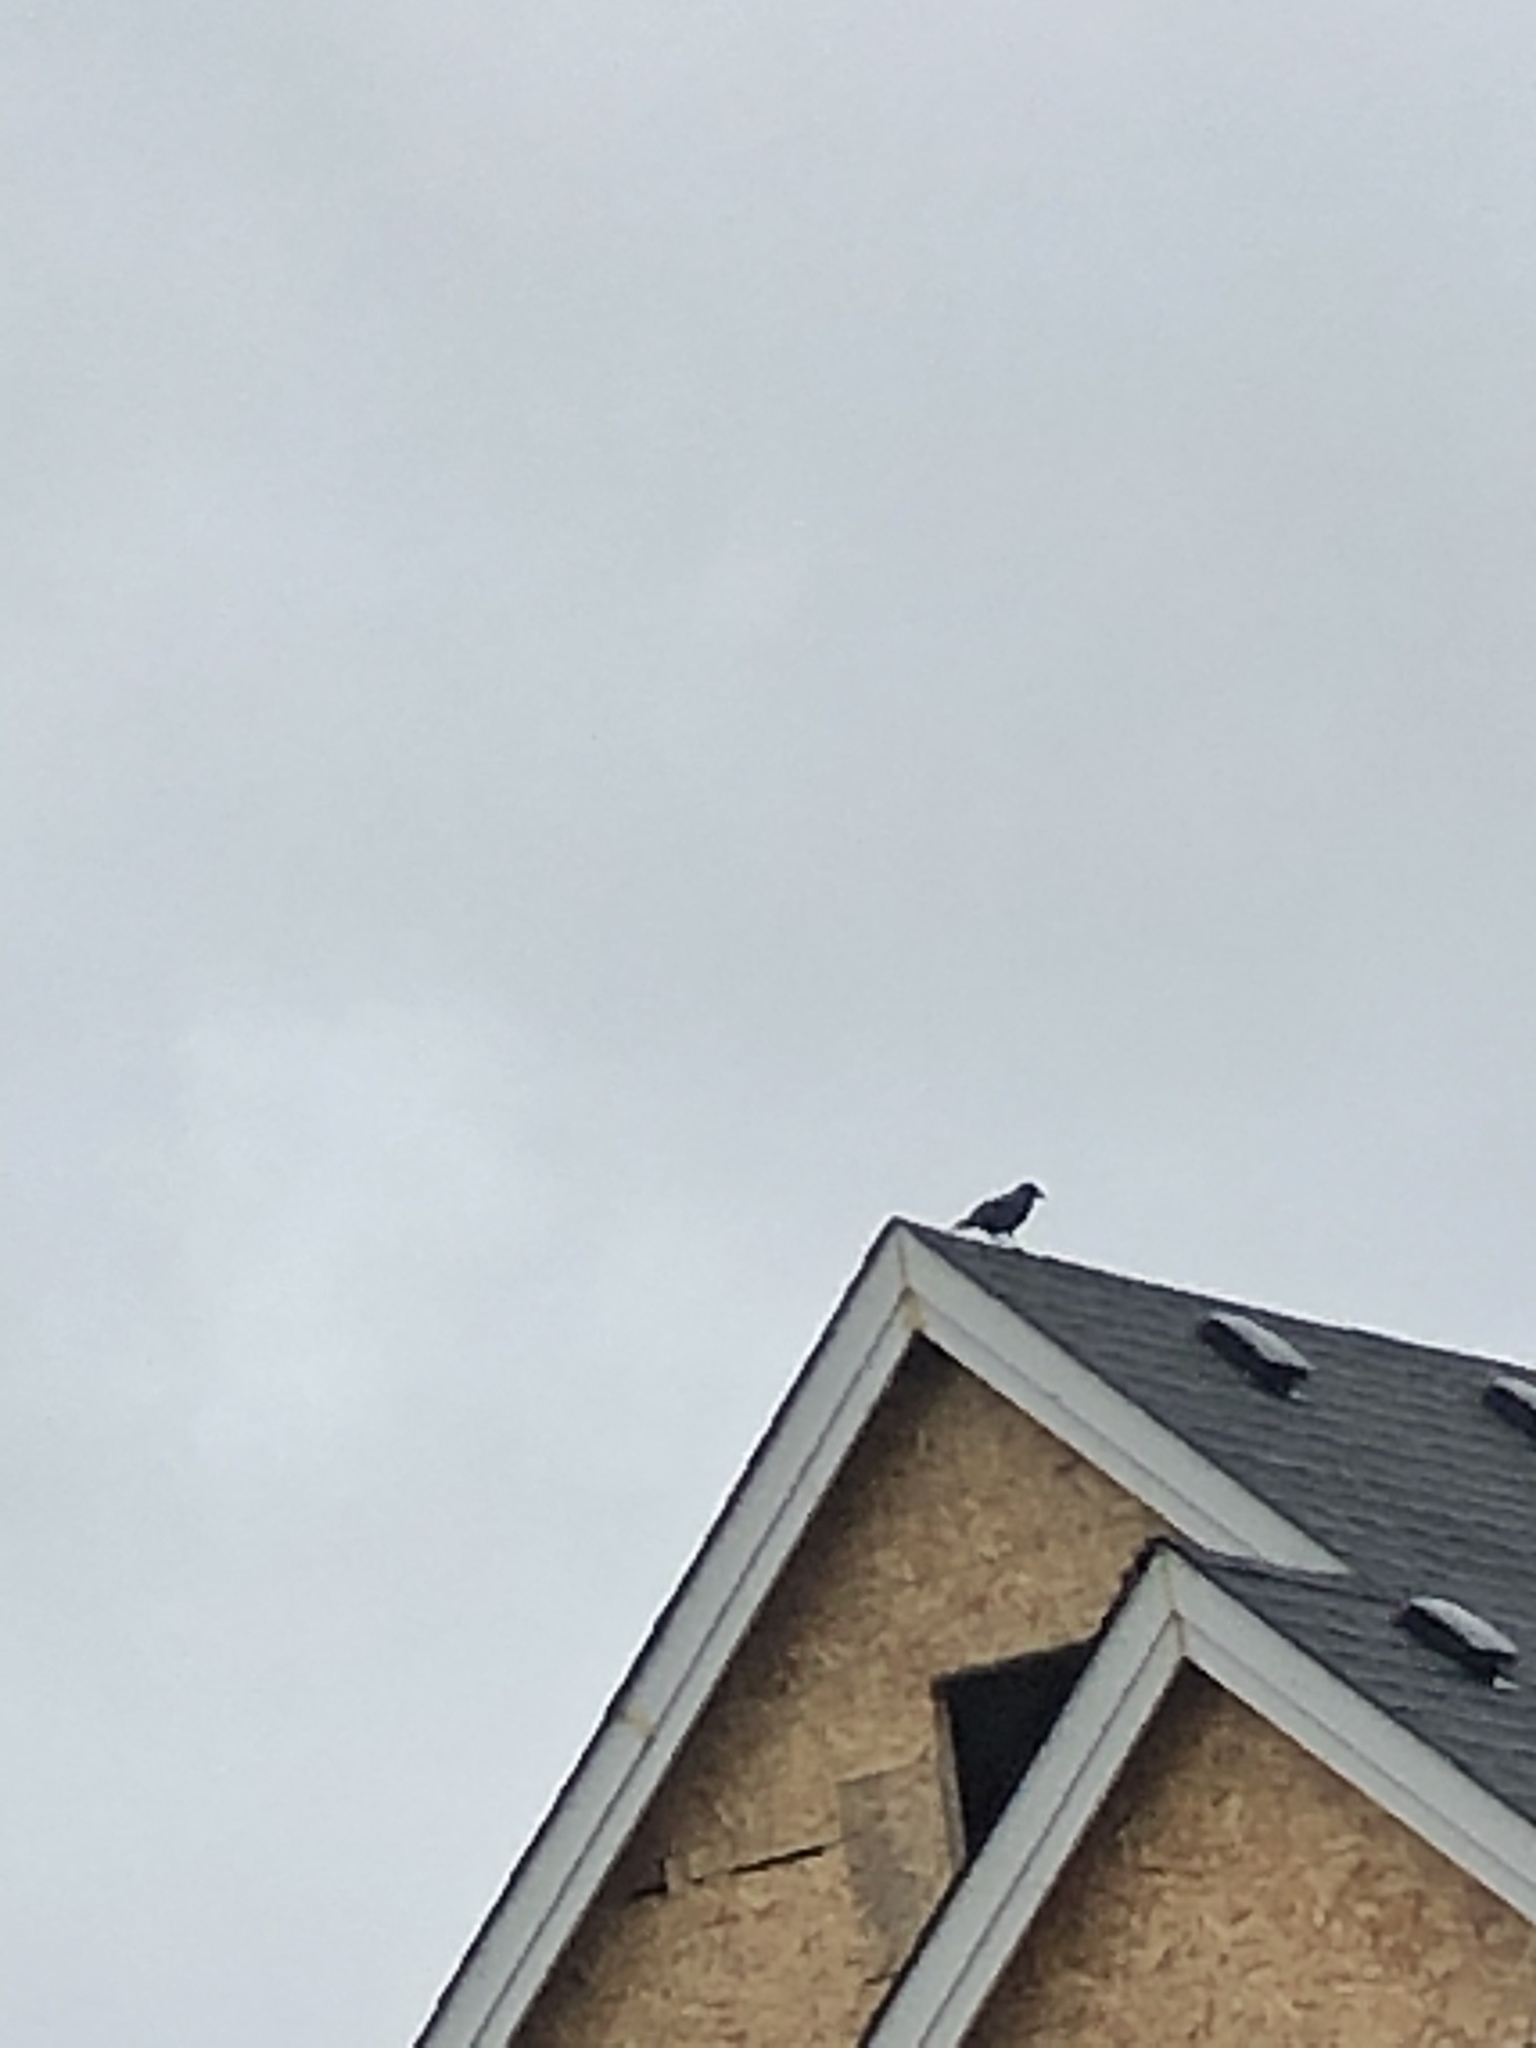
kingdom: Animalia
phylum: Chordata
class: Aves
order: Passeriformes
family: Corvidae
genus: Corvus
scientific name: Corvus brachyrhynchos
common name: American crow
